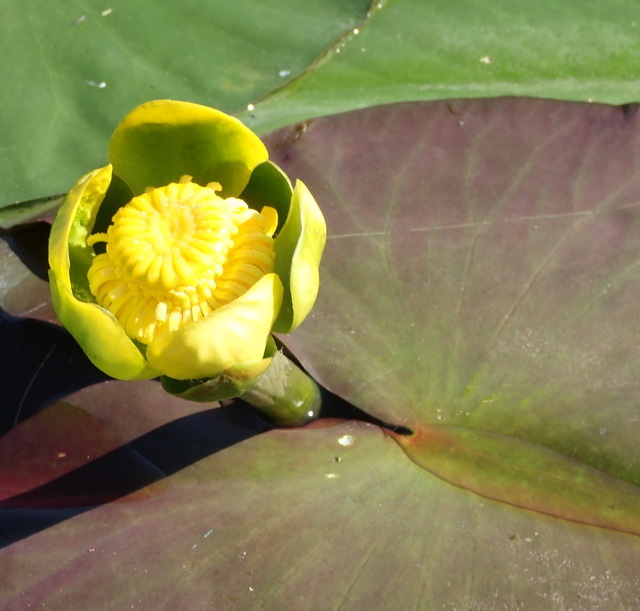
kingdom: Plantae
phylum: Tracheophyta
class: Magnoliopsida
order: Nymphaeales
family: Nymphaeaceae
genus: Nuphar
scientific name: Nuphar advena
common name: Spatter-dock
